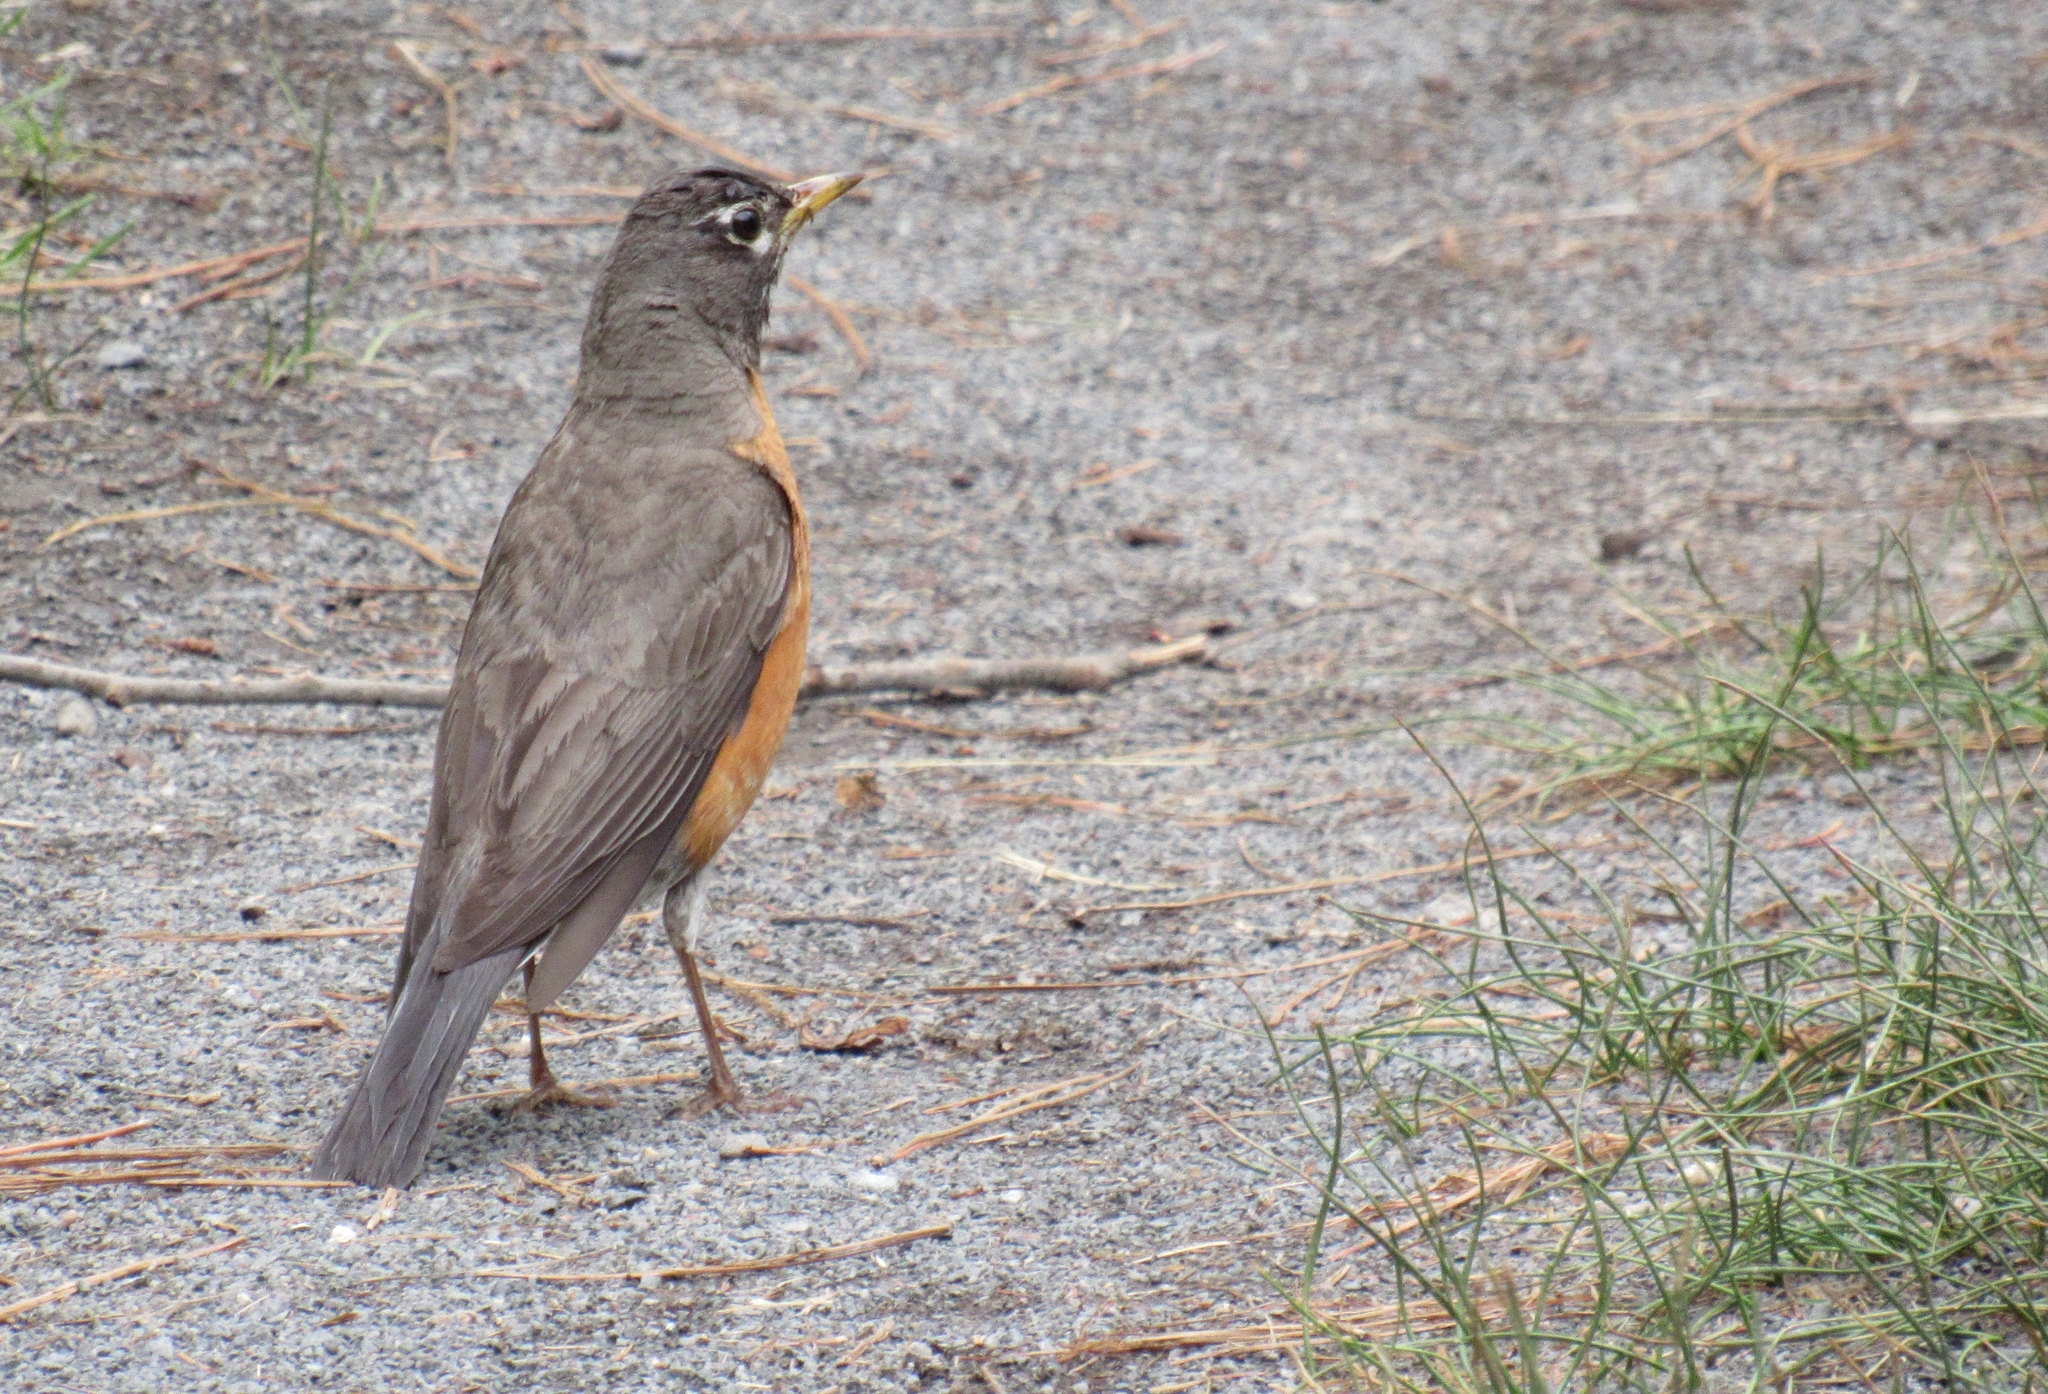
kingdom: Animalia
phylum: Chordata
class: Aves
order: Passeriformes
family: Turdidae
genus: Turdus
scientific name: Turdus migratorius
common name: American robin
